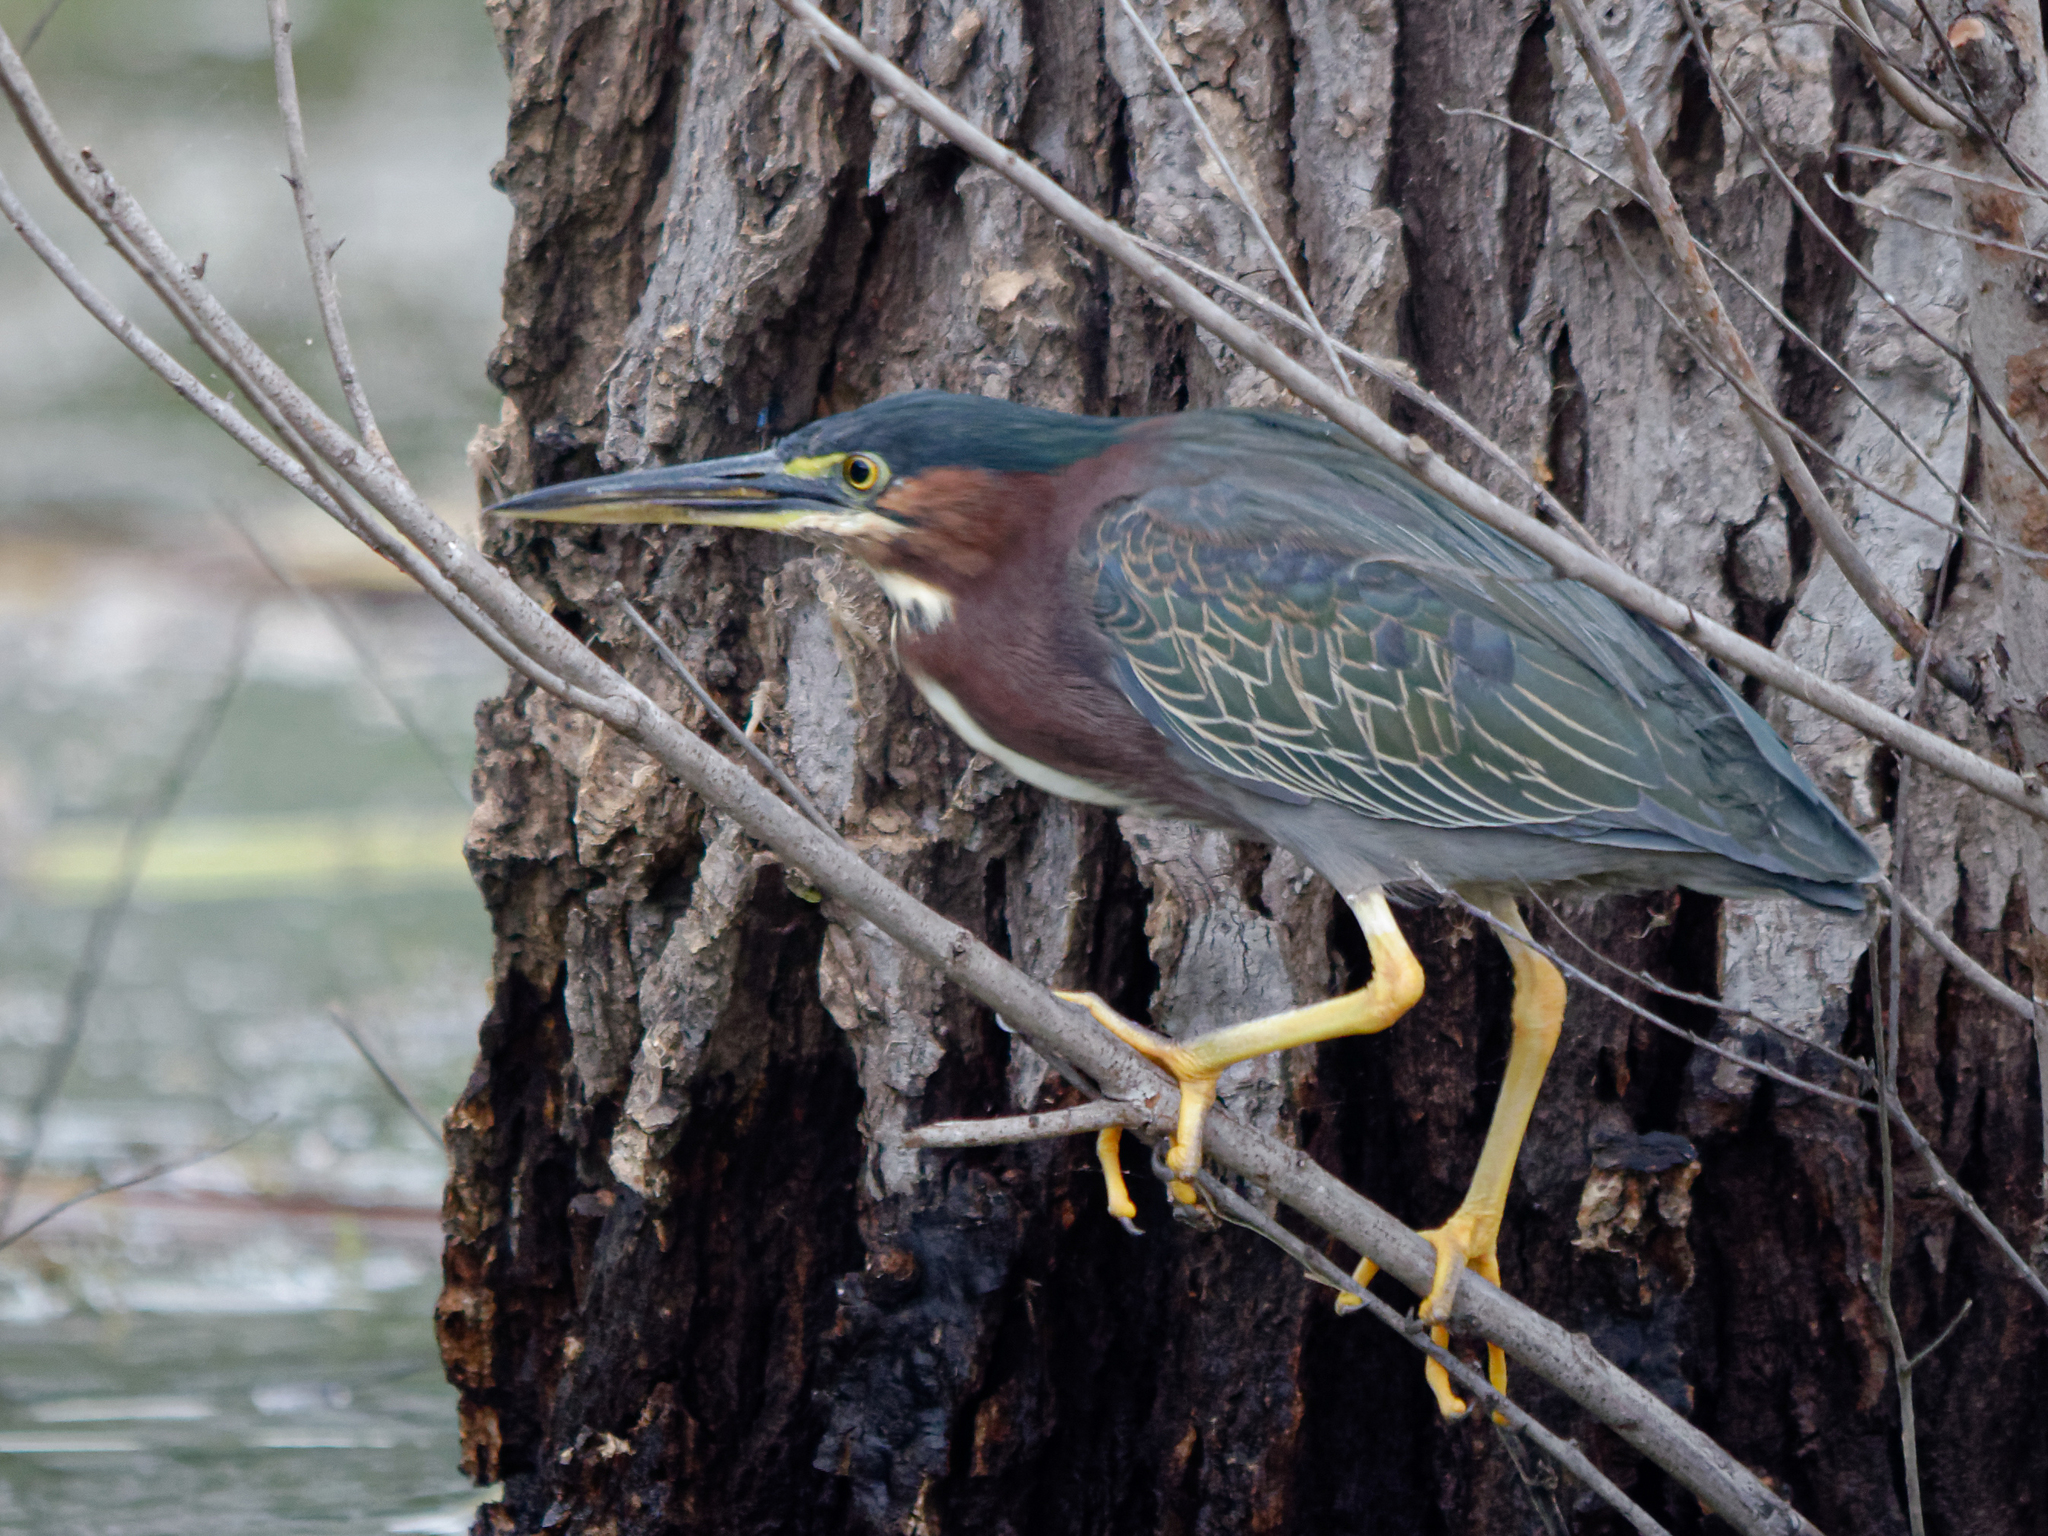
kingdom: Animalia
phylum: Chordata
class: Aves
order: Pelecaniformes
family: Ardeidae
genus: Butorides
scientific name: Butorides virescens
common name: Green heron
